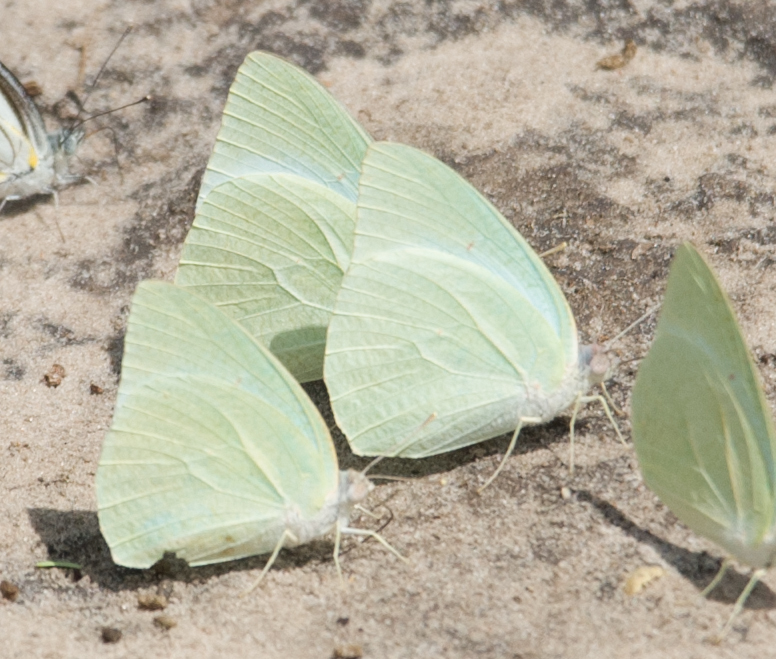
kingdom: Animalia
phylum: Arthropoda
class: Insecta
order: Lepidoptera
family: Pieridae
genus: Catopsilia
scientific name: Catopsilia florella
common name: African migrant
